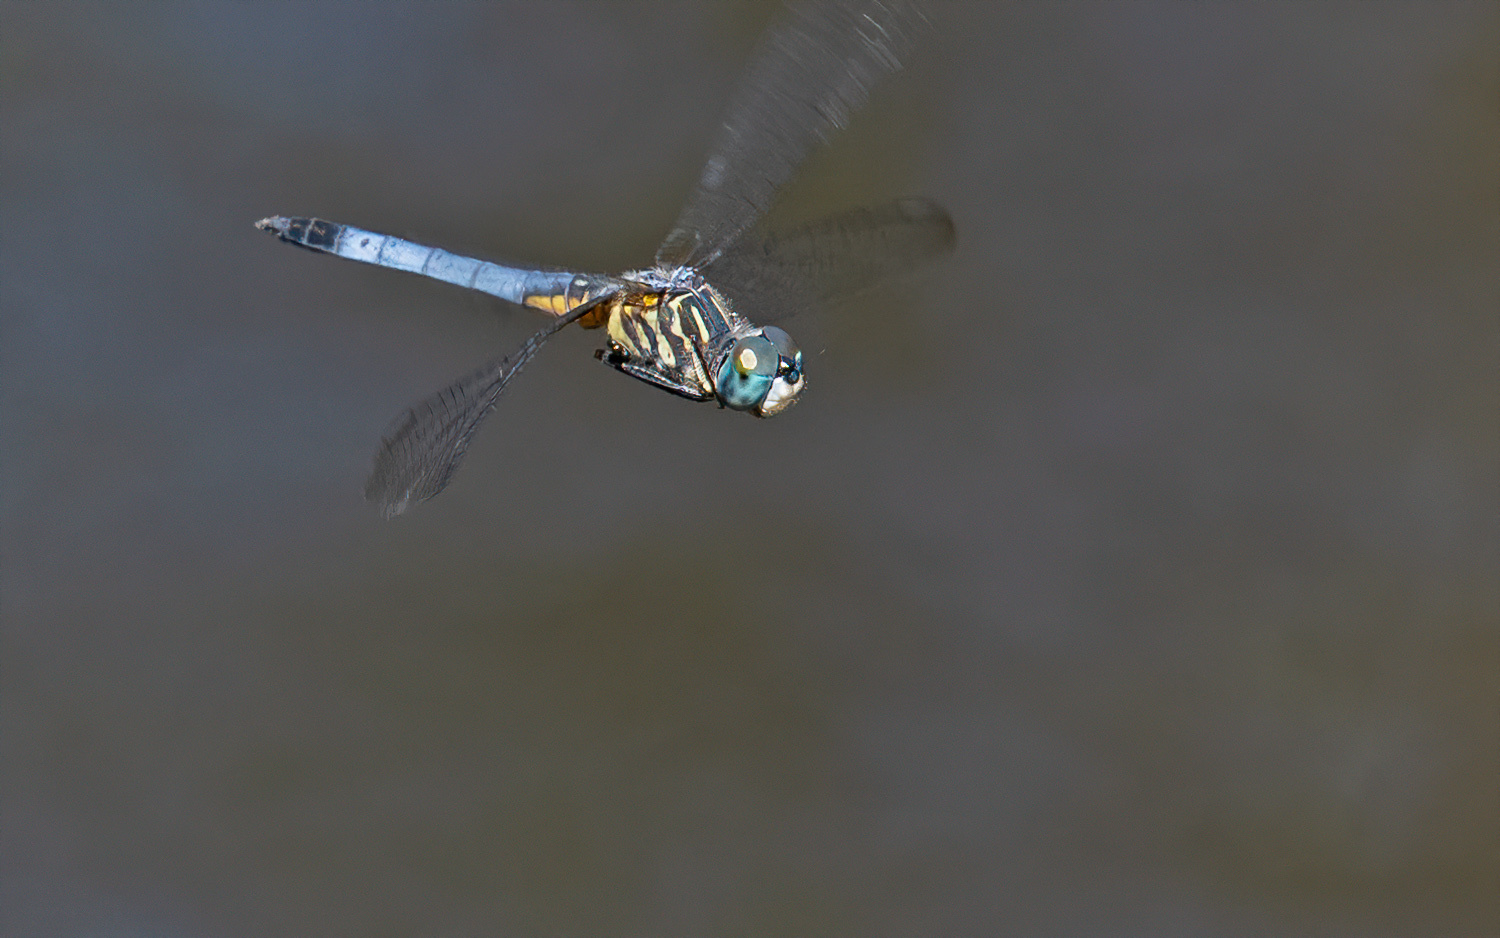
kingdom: Animalia
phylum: Arthropoda
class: Insecta
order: Odonata
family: Libellulidae
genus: Pachydiplax
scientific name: Pachydiplax longipennis
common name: Blue dasher
